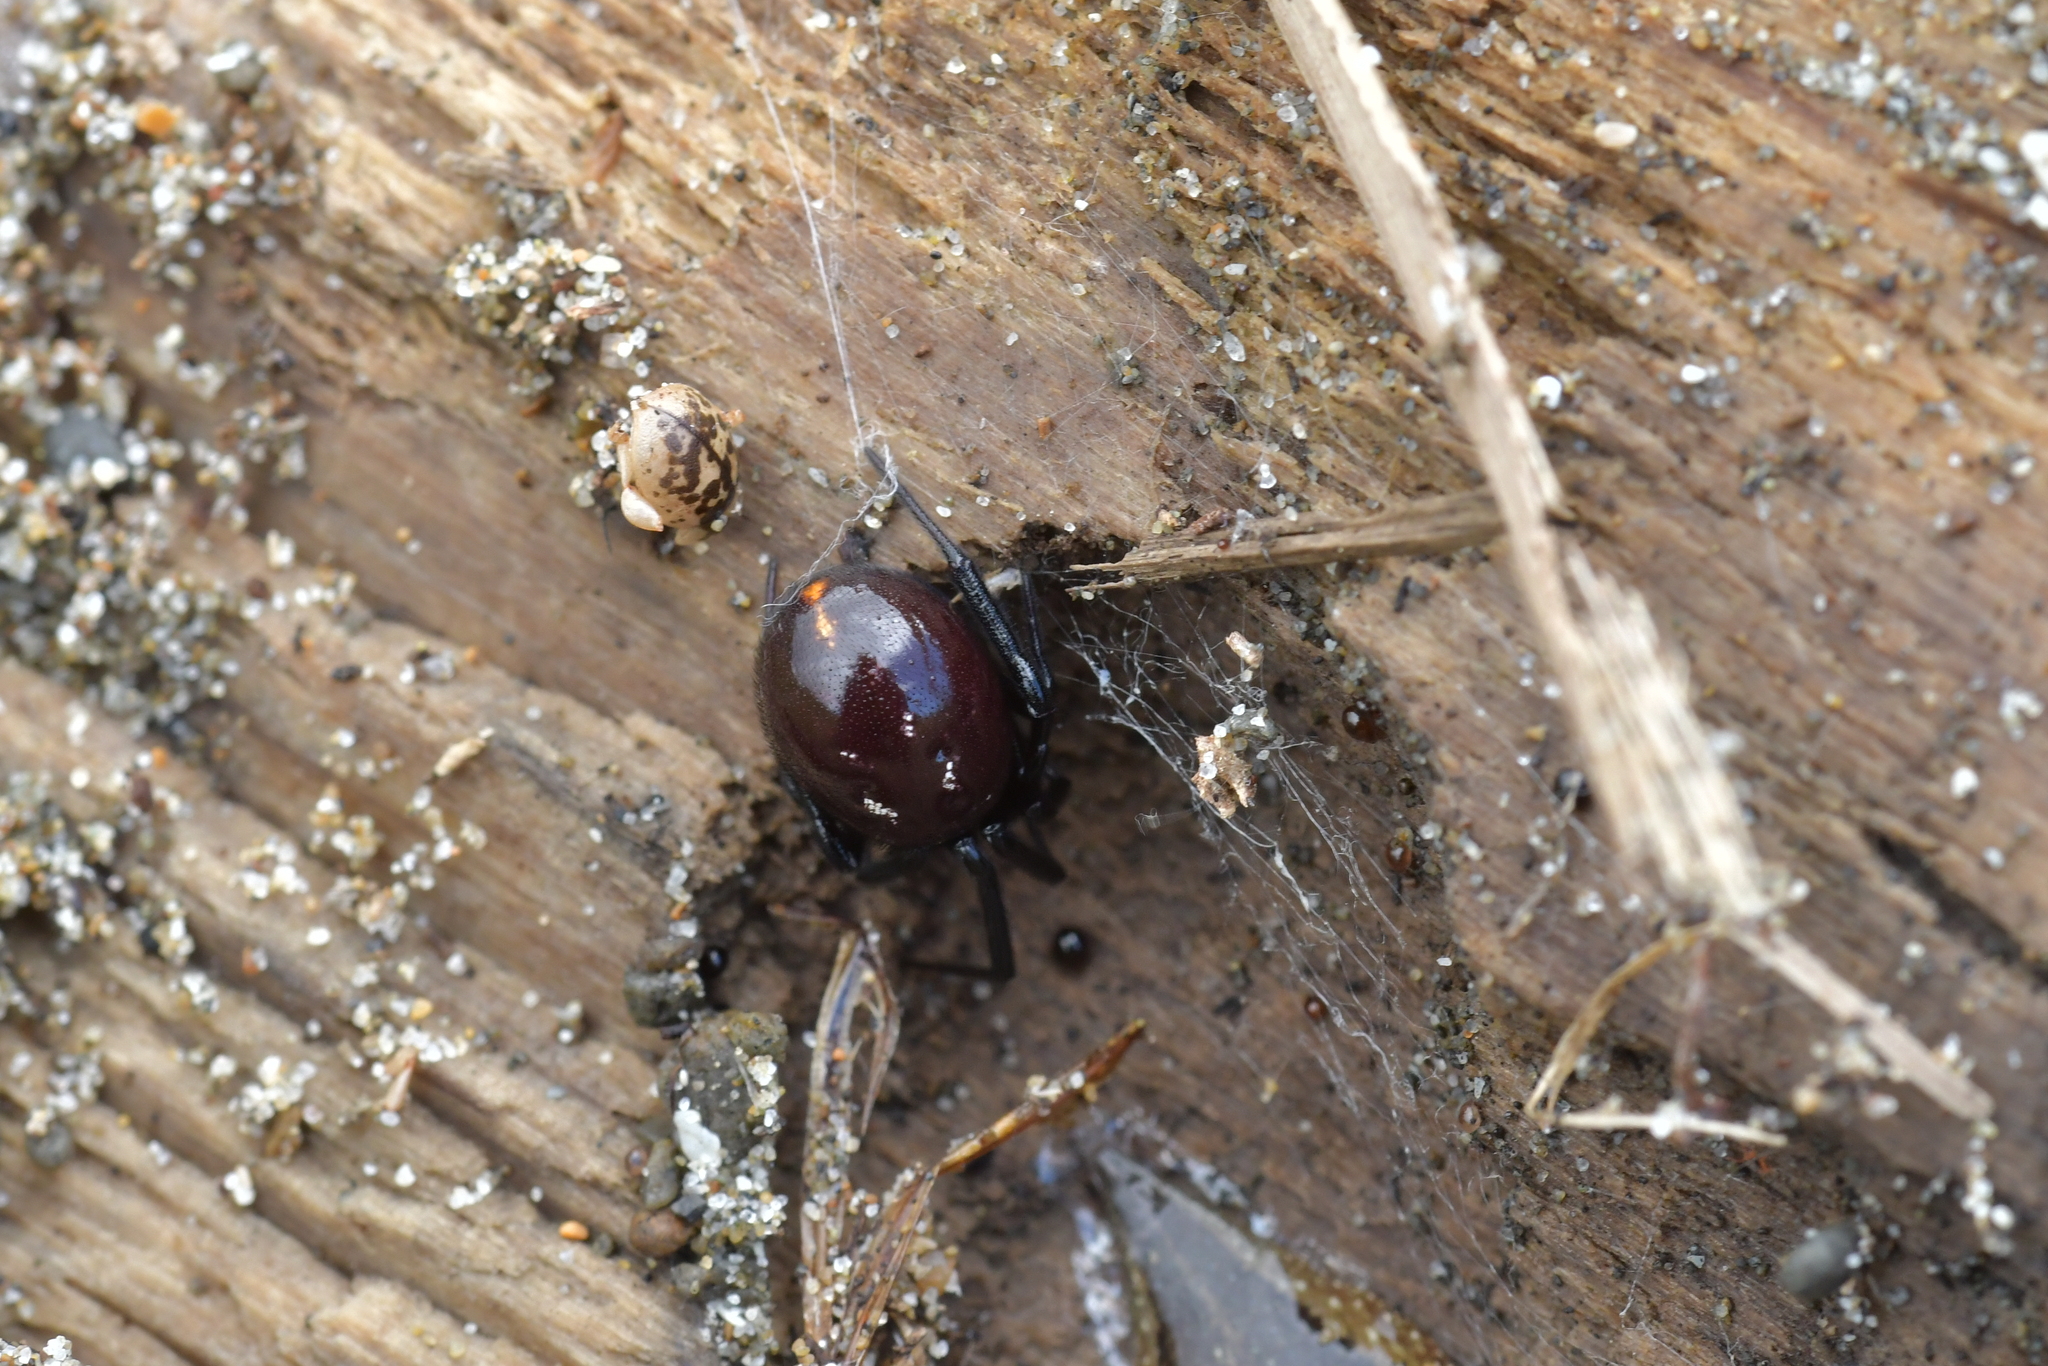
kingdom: Animalia
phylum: Arthropoda
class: Arachnida
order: Araneae
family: Theridiidae
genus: Steatoda
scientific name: Steatoda capensis
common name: Cobweb weaver
